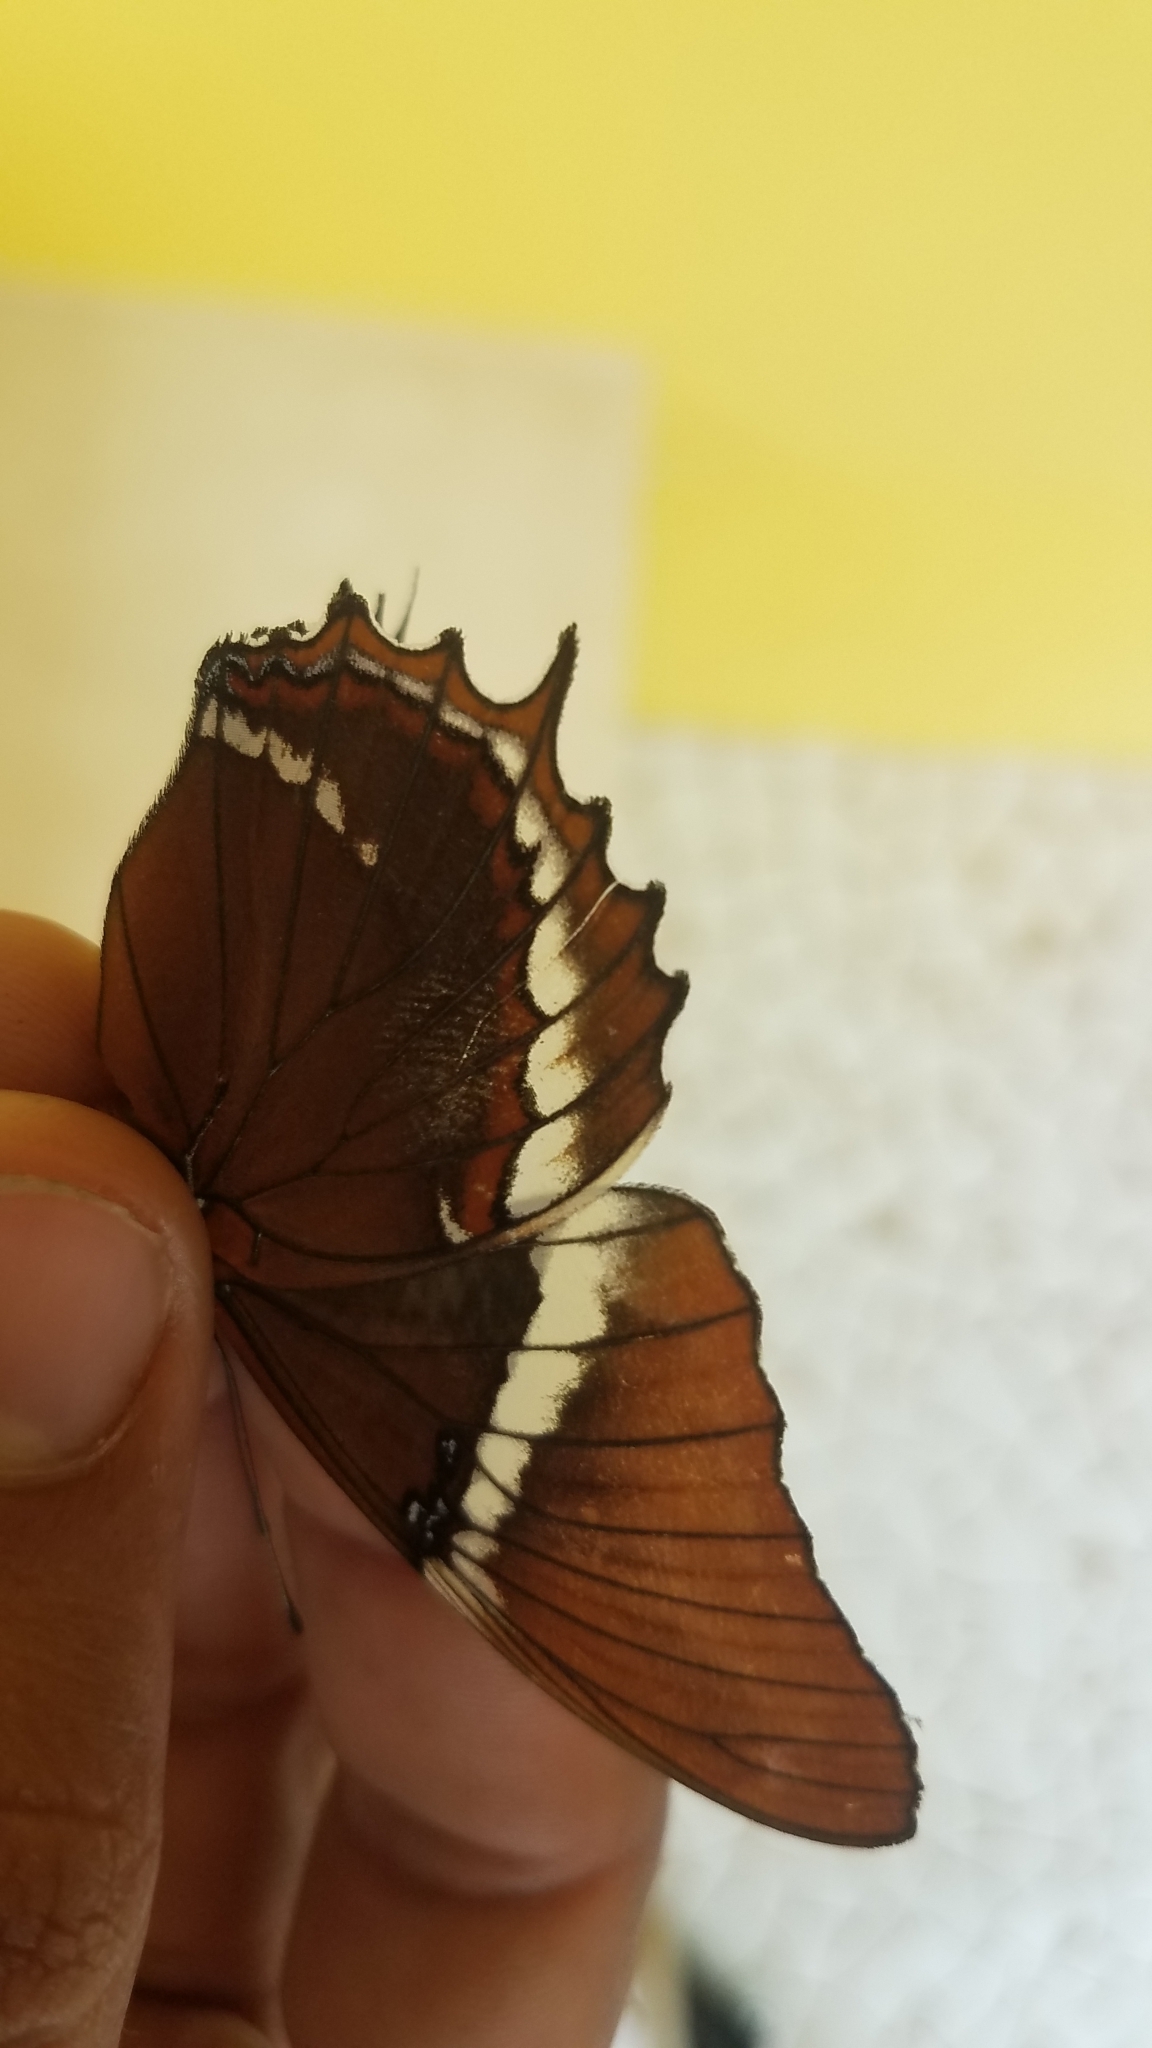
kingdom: Animalia
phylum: Arthropoda
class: Insecta
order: Lepidoptera
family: Nymphalidae
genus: Siproeta
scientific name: Siproeta epaphus
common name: Rusty-tipped page
